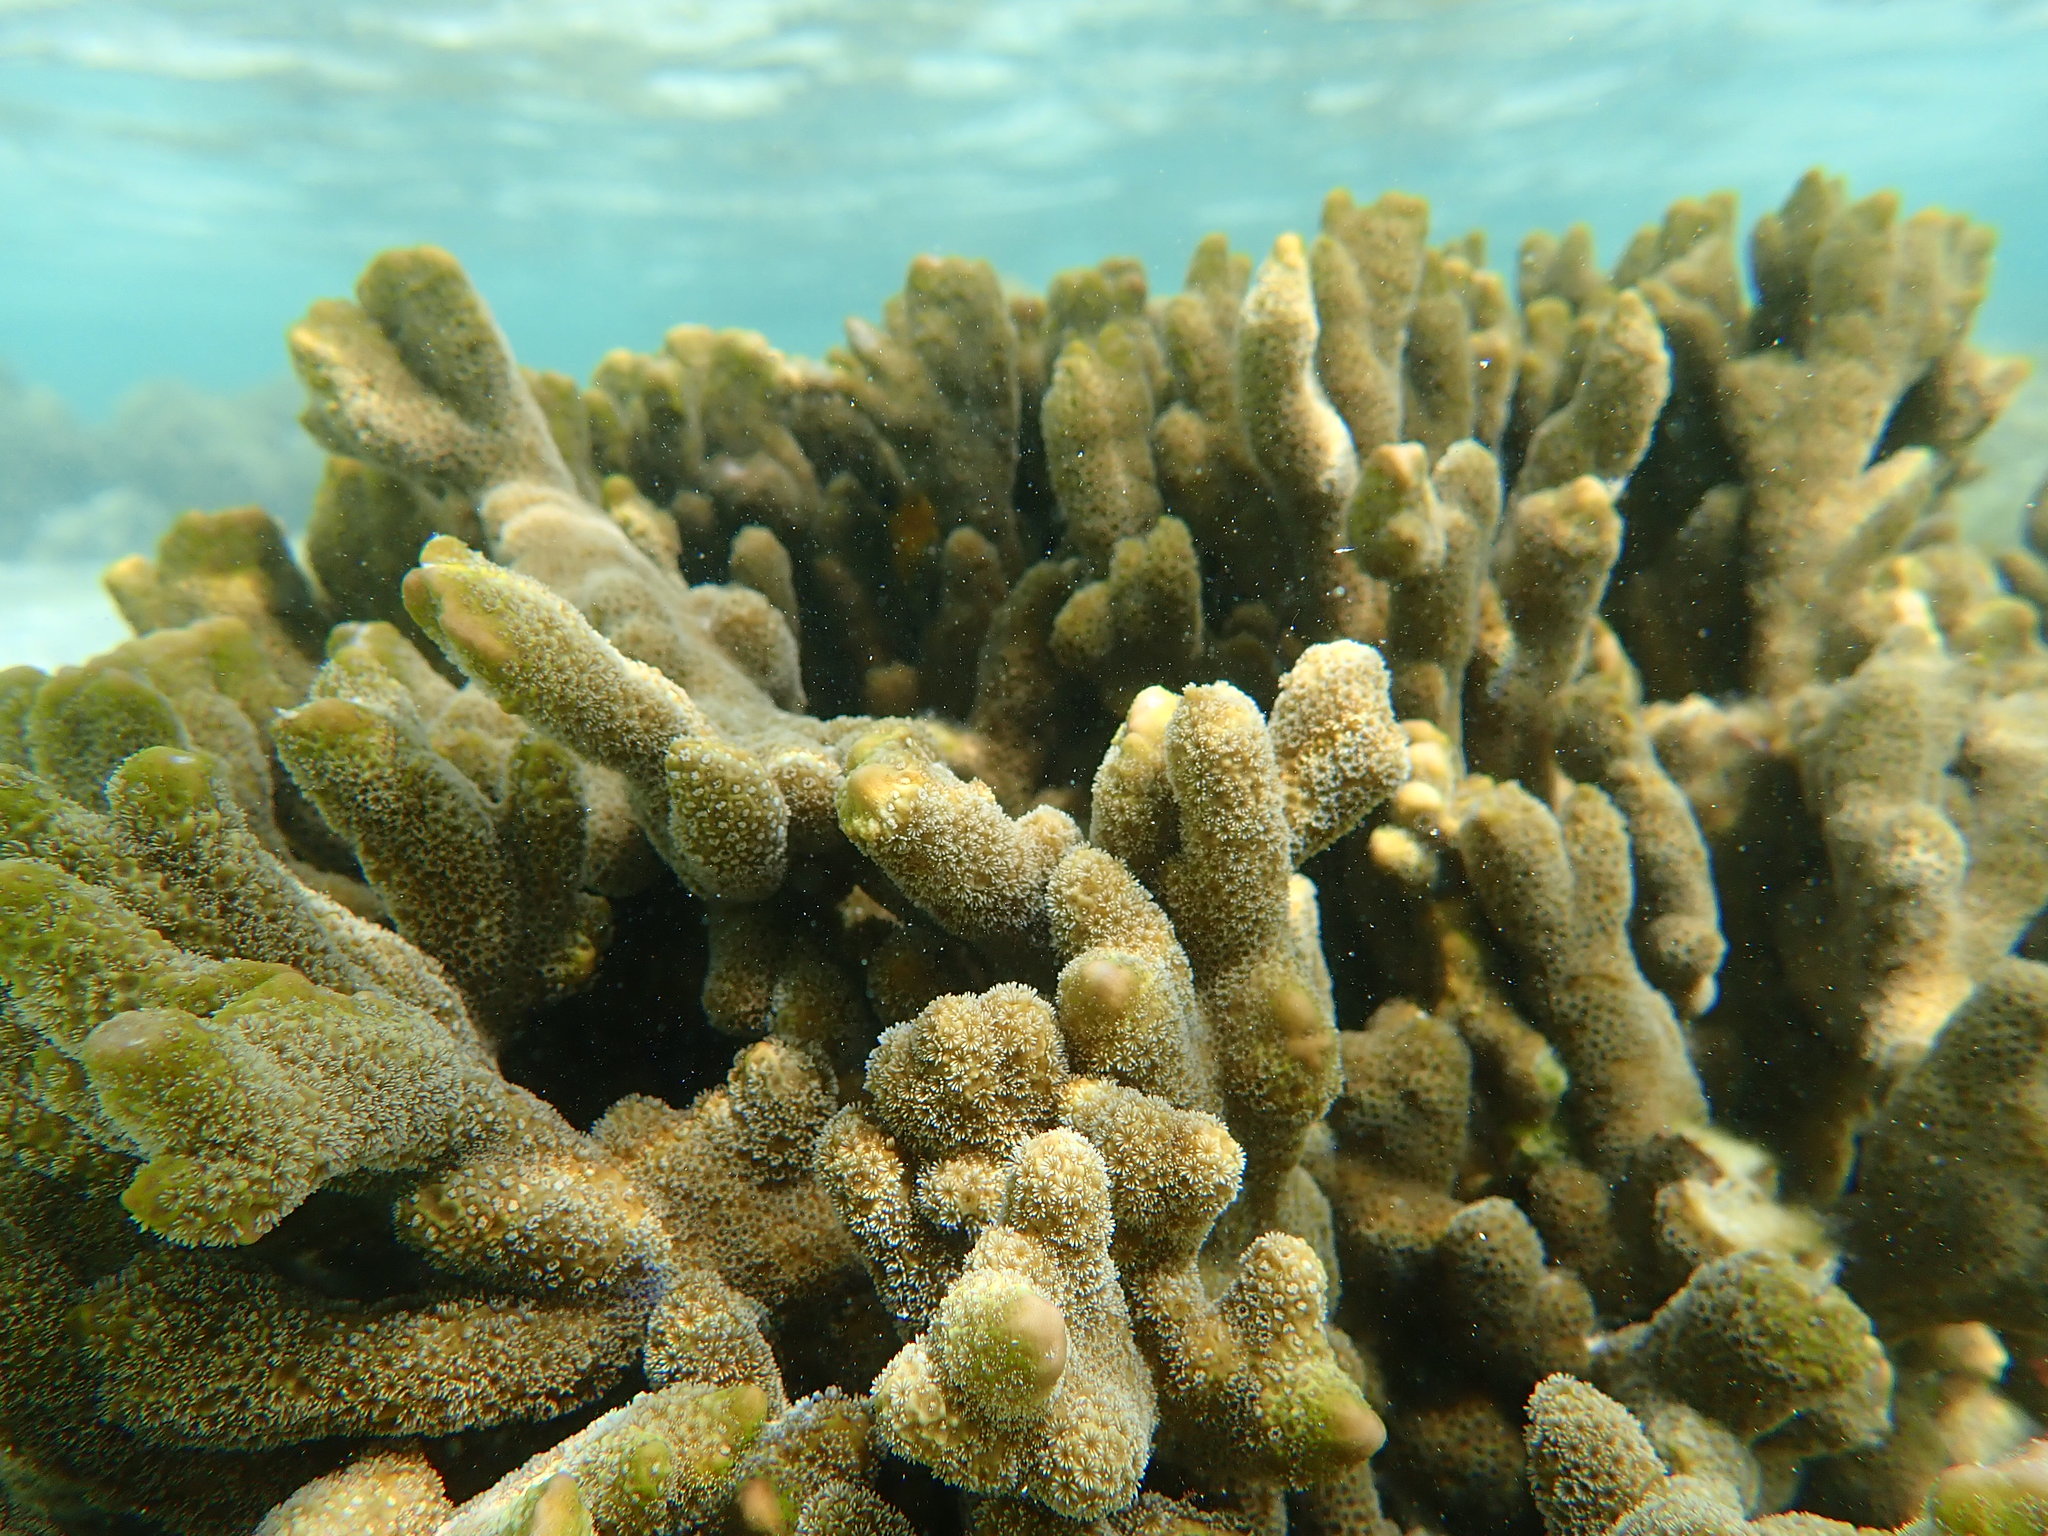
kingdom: Animalia
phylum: Cnidaria
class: Anthozoa
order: Scleractinia
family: Acroporidae
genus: Montipora
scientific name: Montipora digitata
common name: Pore coral
